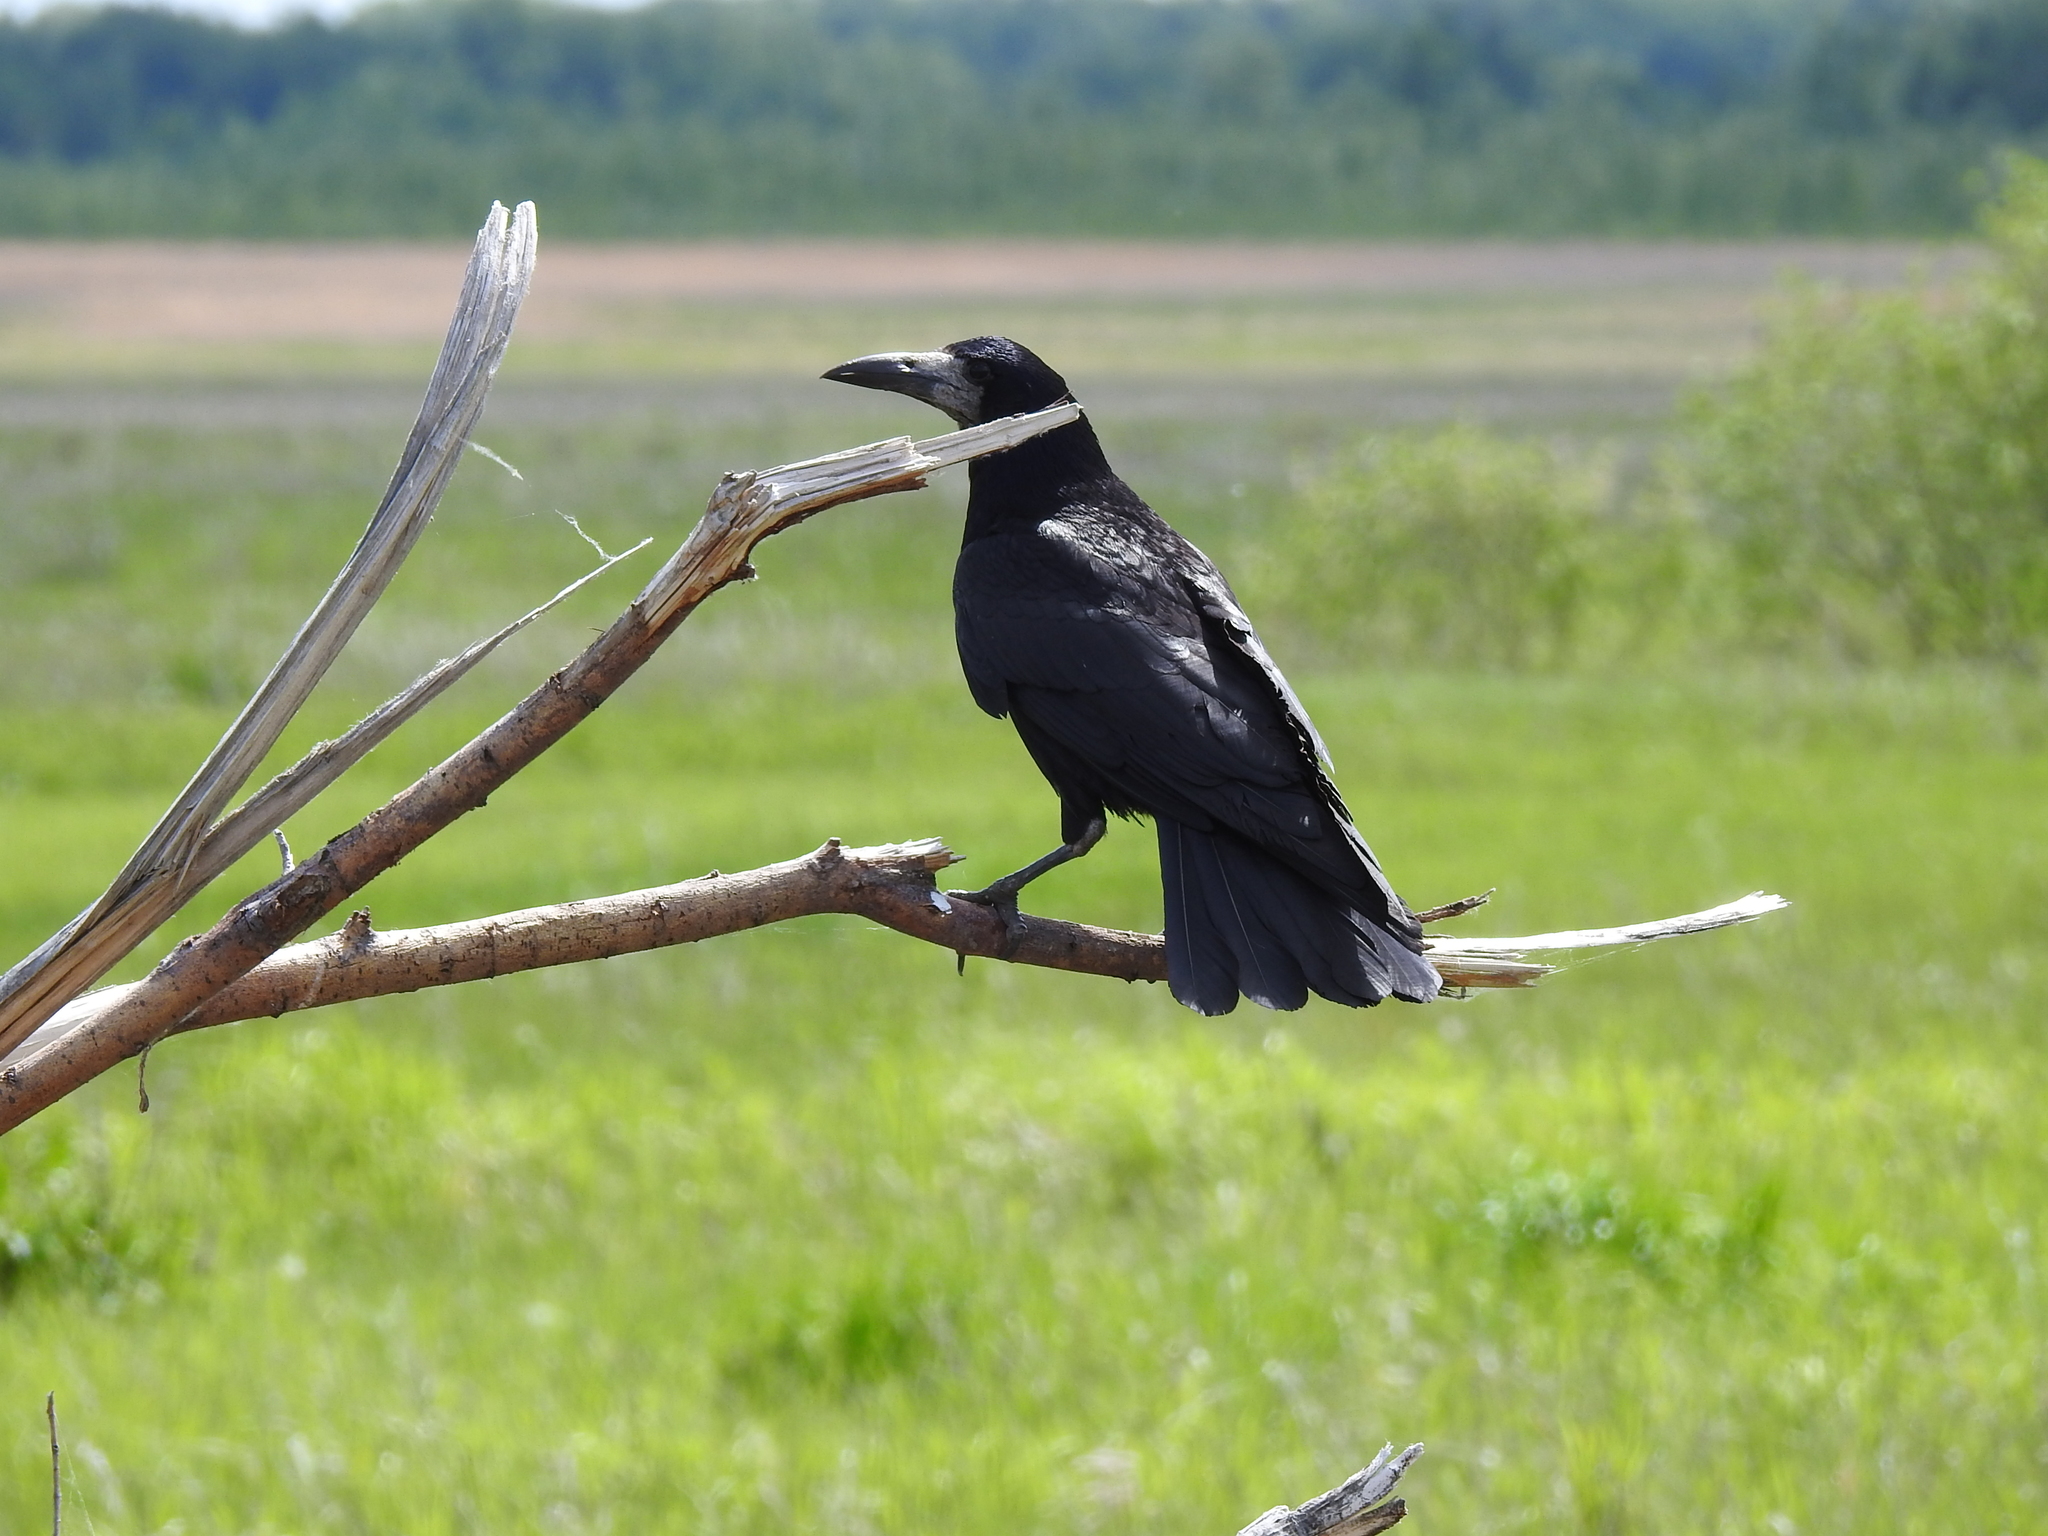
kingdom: Animalia
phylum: Chordata
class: Aves
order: Passeriformes
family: Corvidae
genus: Corvus
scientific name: Corvus frugilegus
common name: Rook
